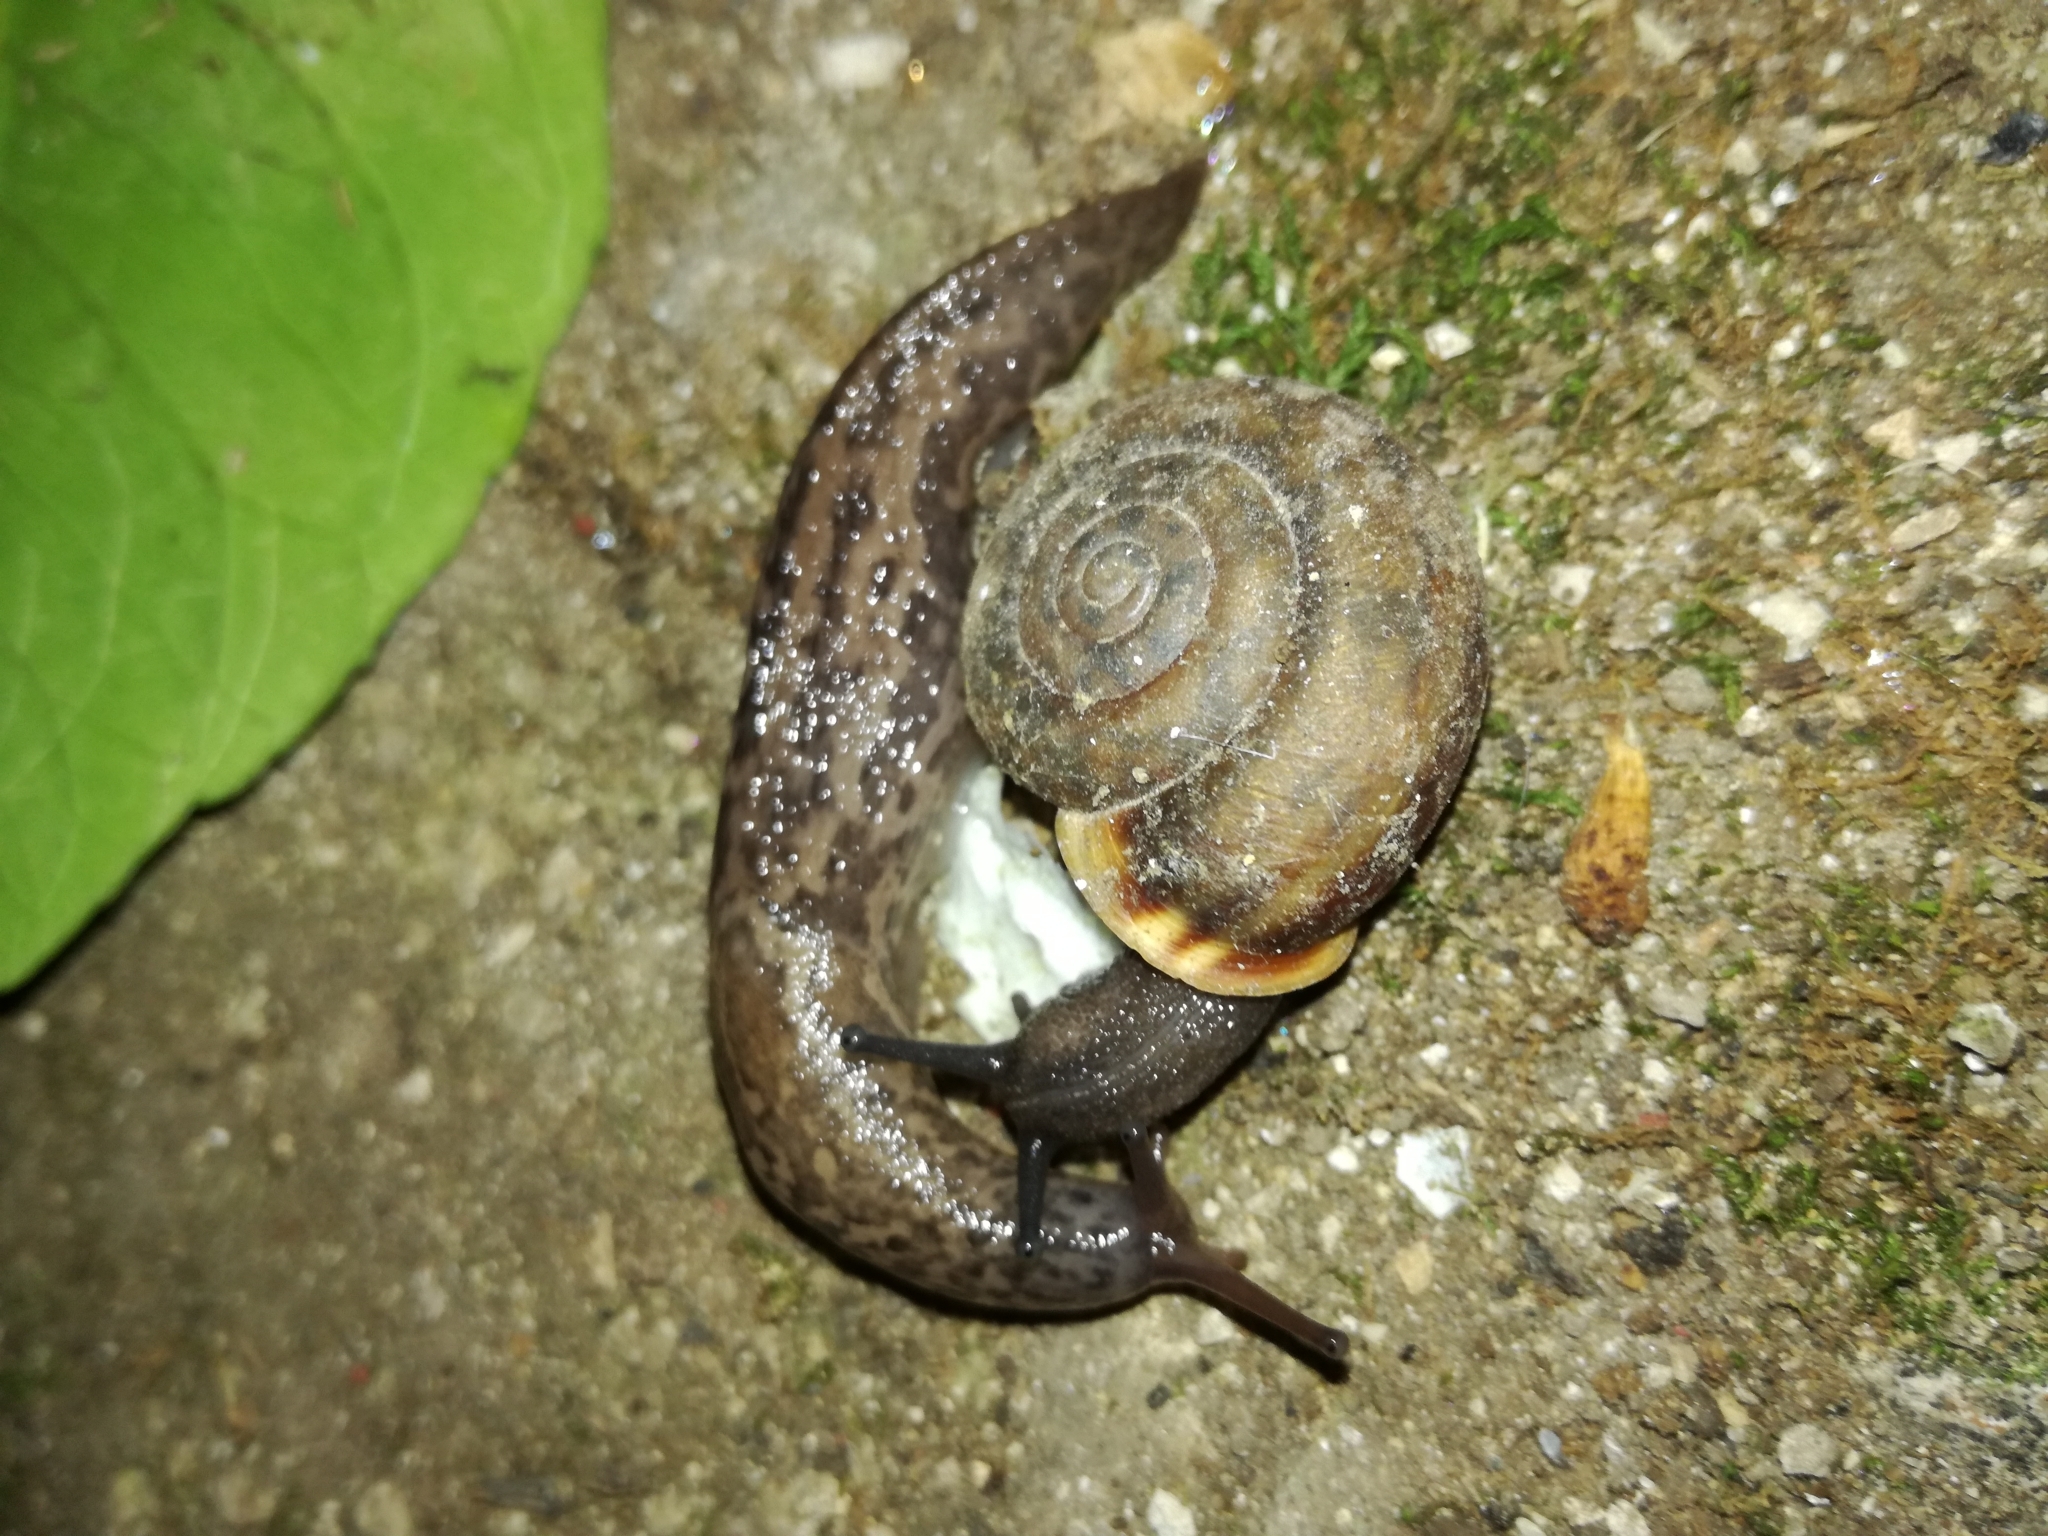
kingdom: Animalia
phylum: Mollusca
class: Gastropoda
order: Stylommatophora
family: Limacidae
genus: Limax
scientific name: Limax maximus
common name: Great grey slug
